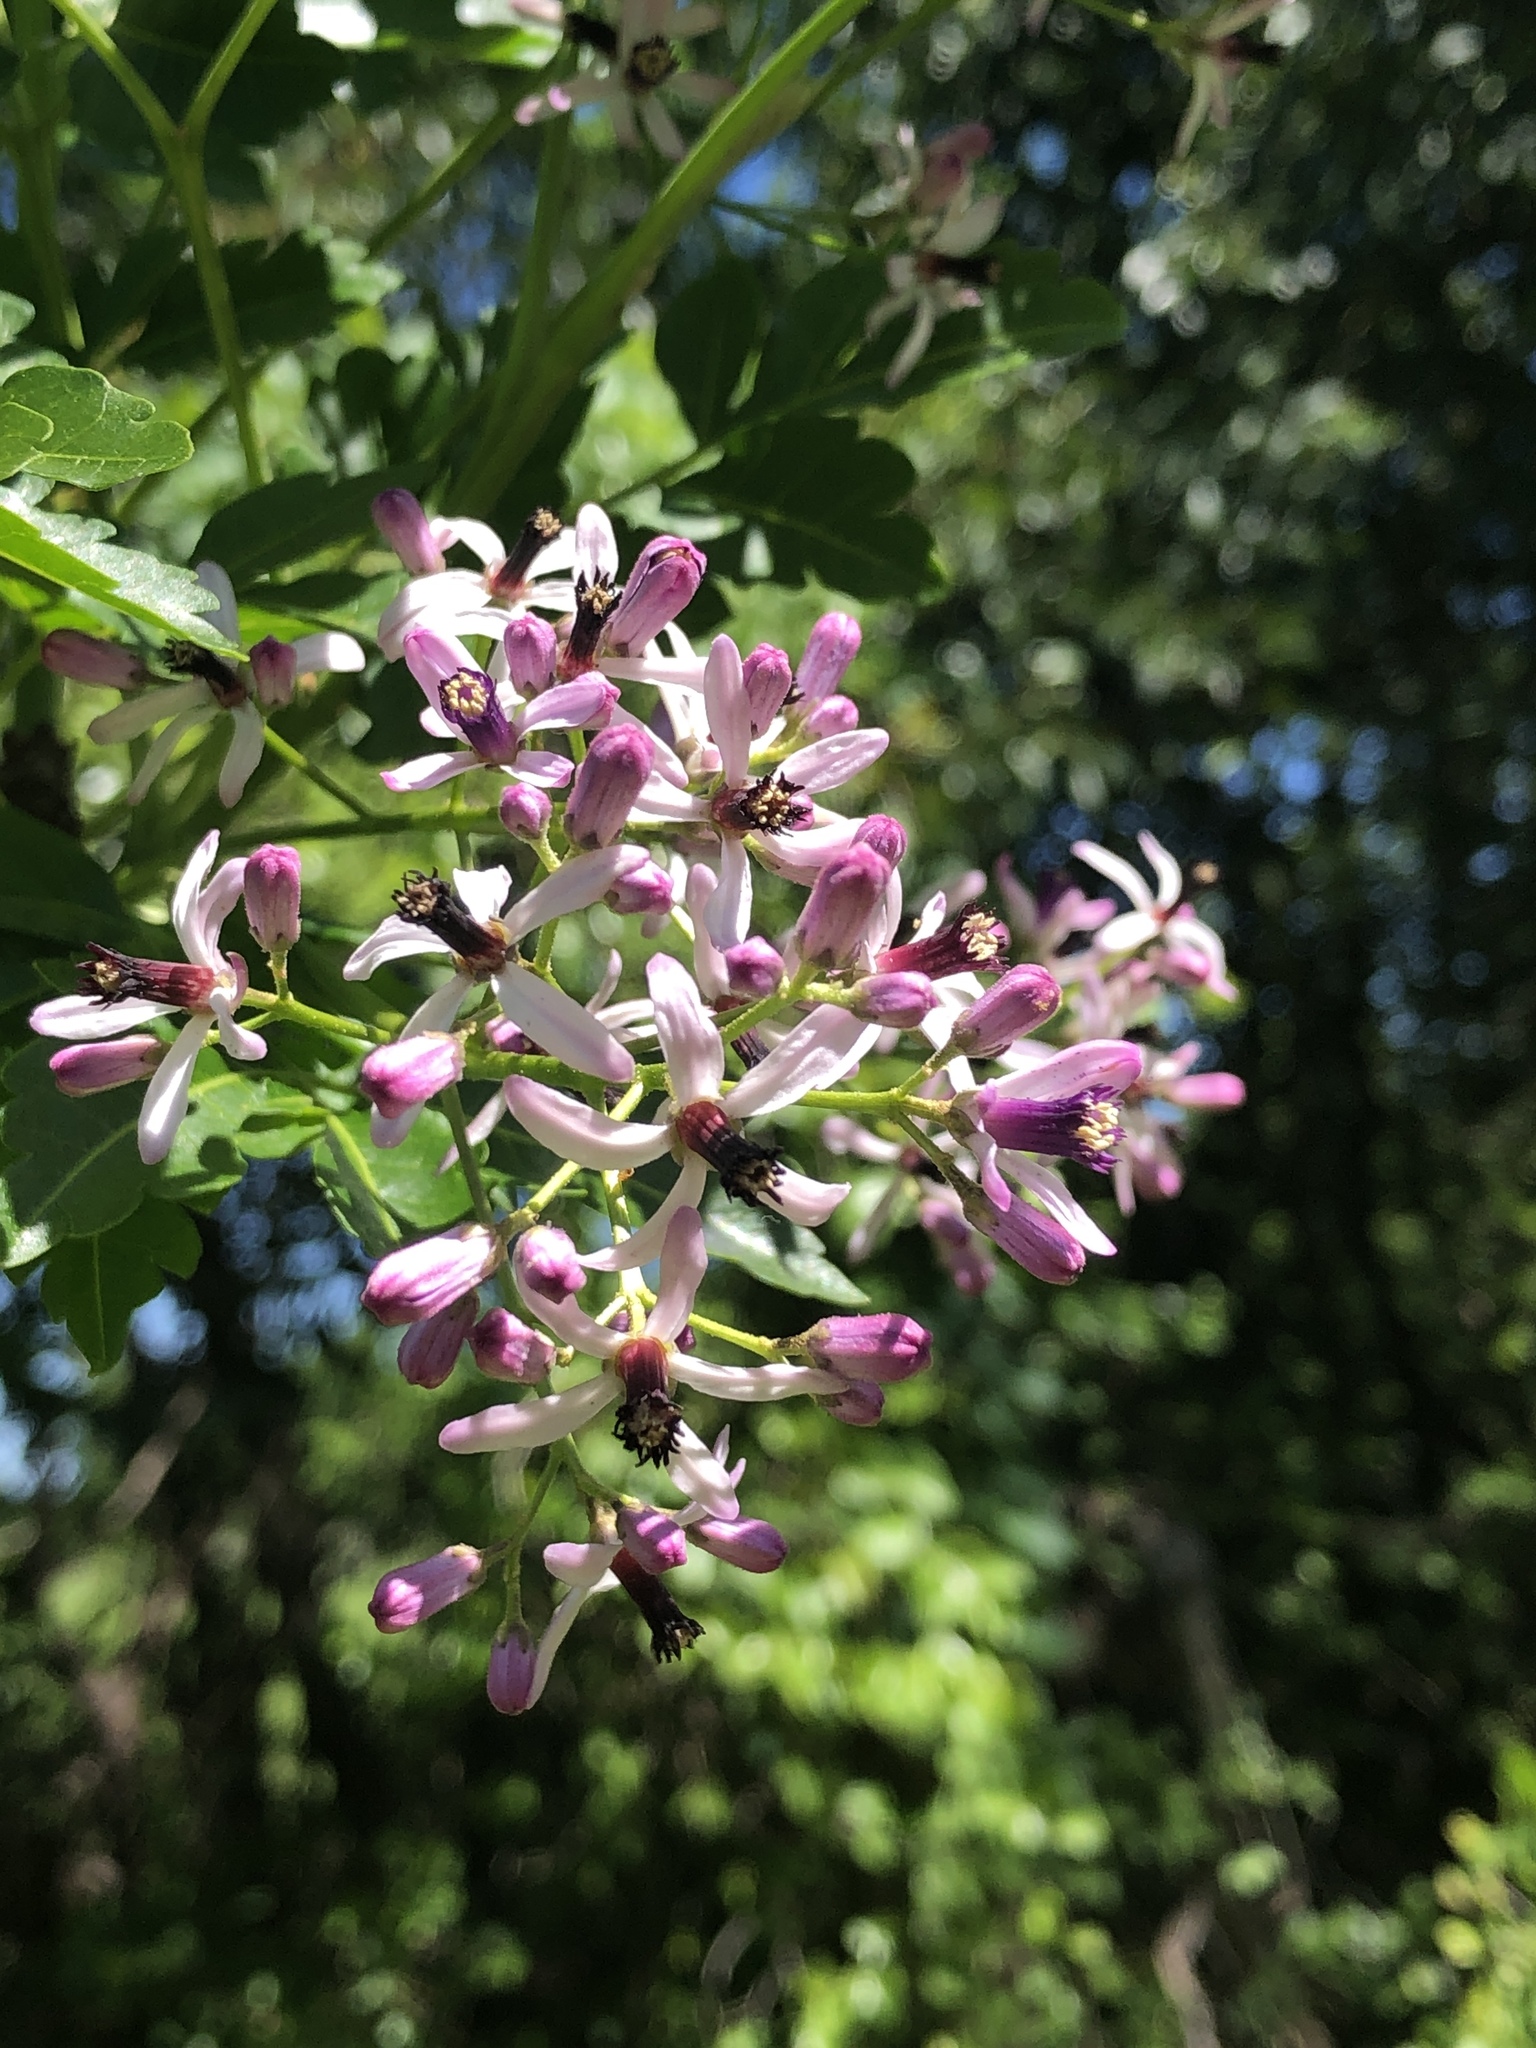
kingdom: Plantae
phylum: Tracheophyta
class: Magnoliopsida
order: Sapindales
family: Meliaceae
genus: Melia
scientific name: Melia azedarach
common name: Chinaberrytree
